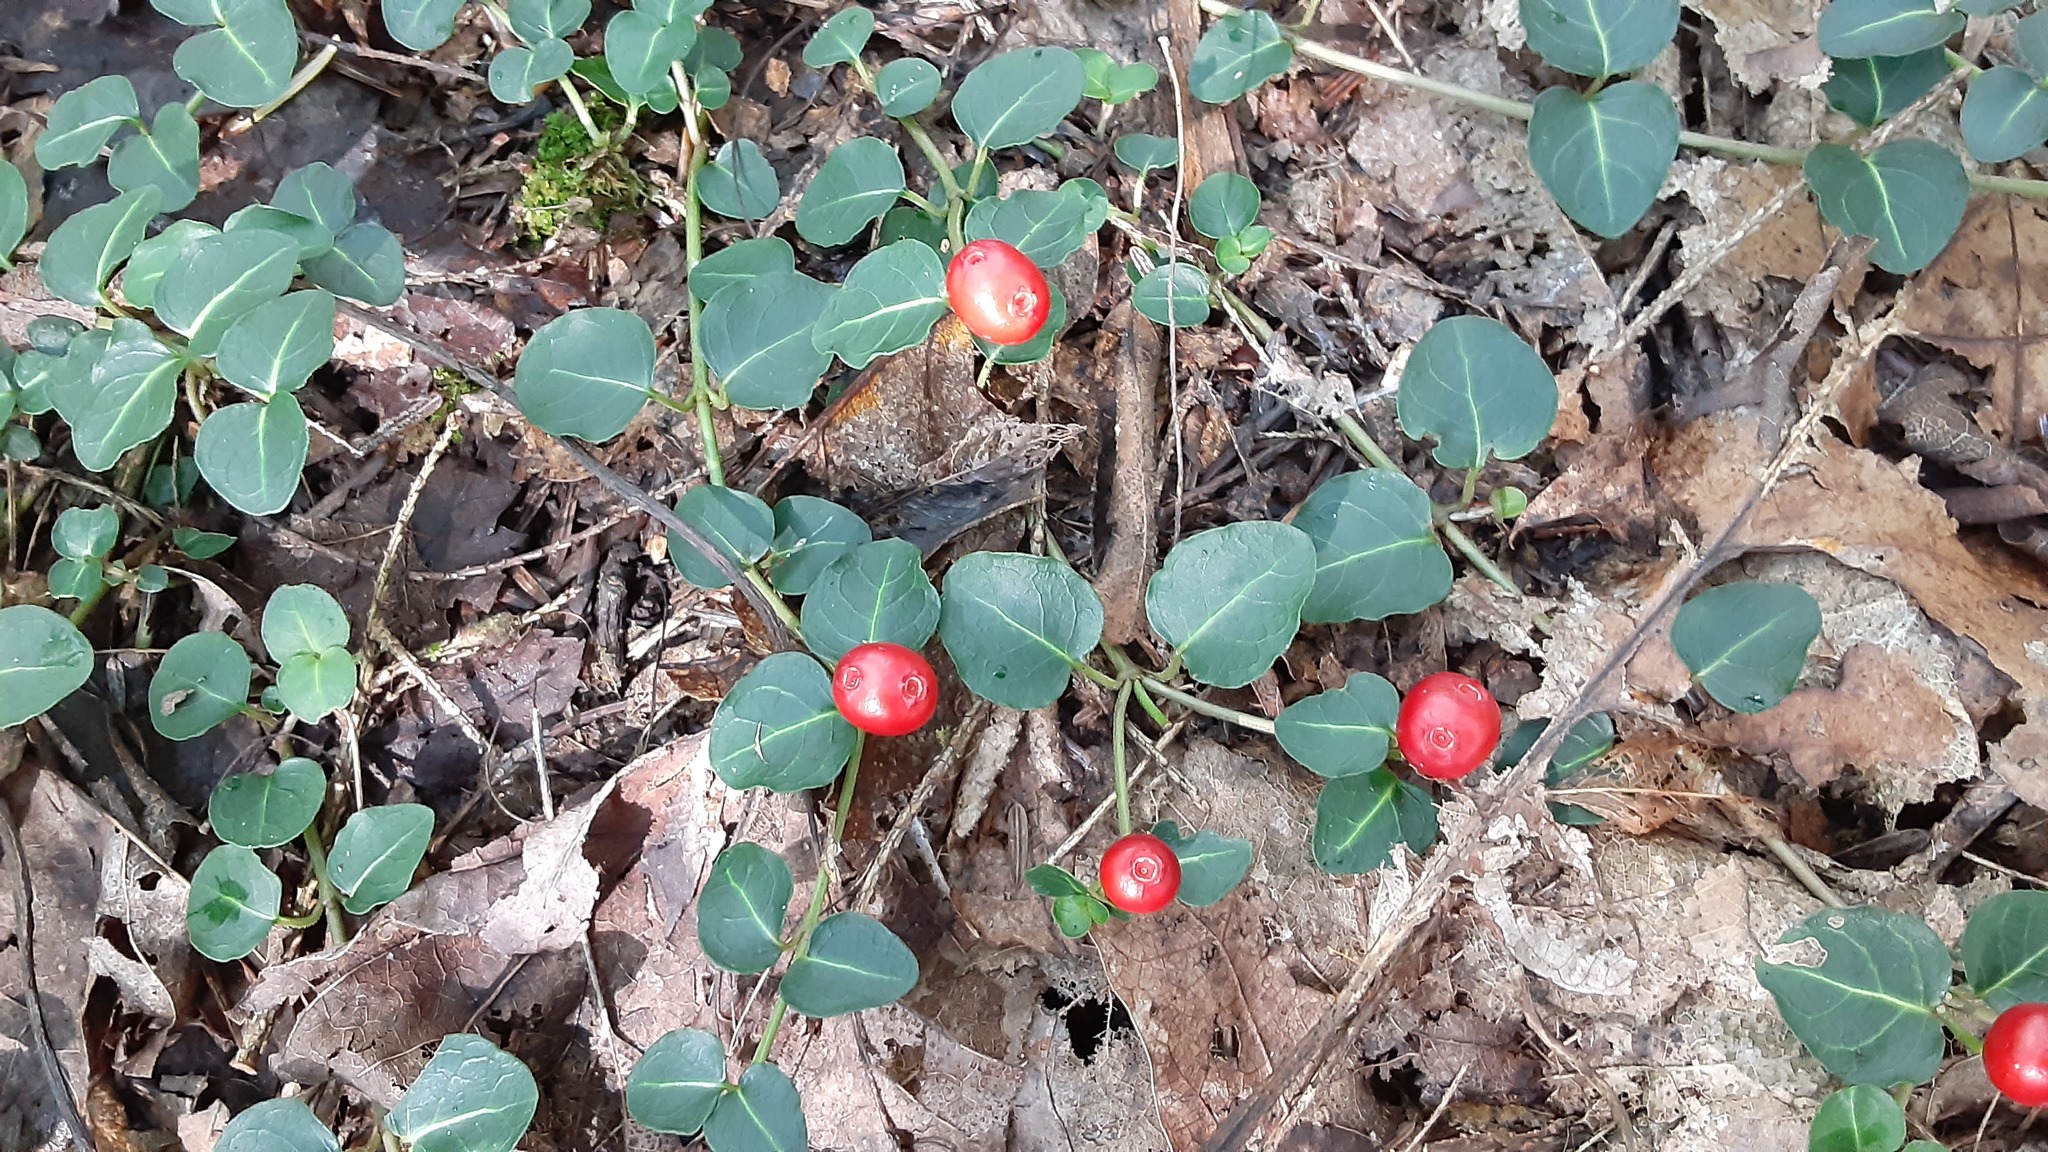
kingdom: Plantae
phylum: Tracheophyta
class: Magnoliopsida
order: Gentianales
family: Rubiaceae
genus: Mitchella
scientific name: Mitchella repens
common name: Partridge-berry
